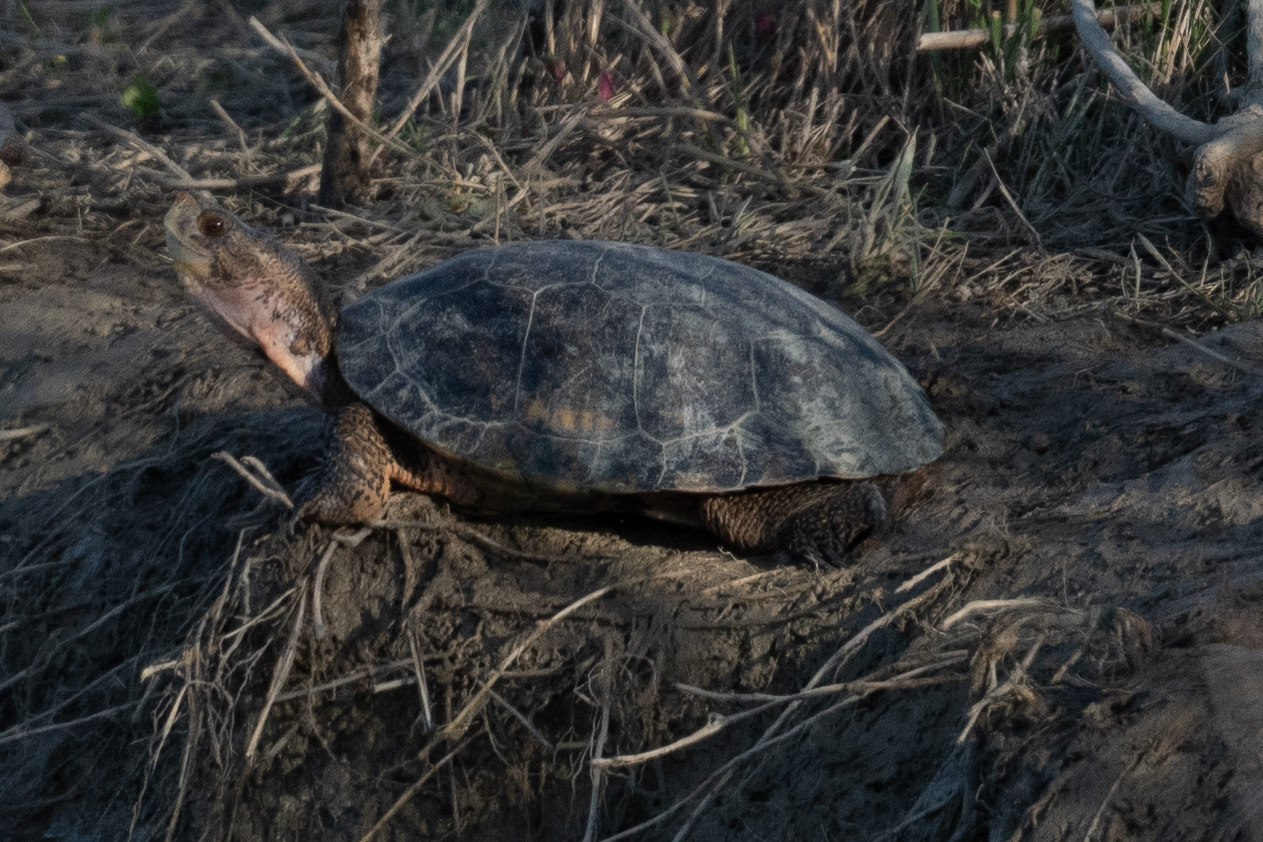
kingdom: Animalia
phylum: Chordata
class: Testudines
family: Emydidae
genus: Actinemys
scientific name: Actinemys marmorata
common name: Western pond turtle
